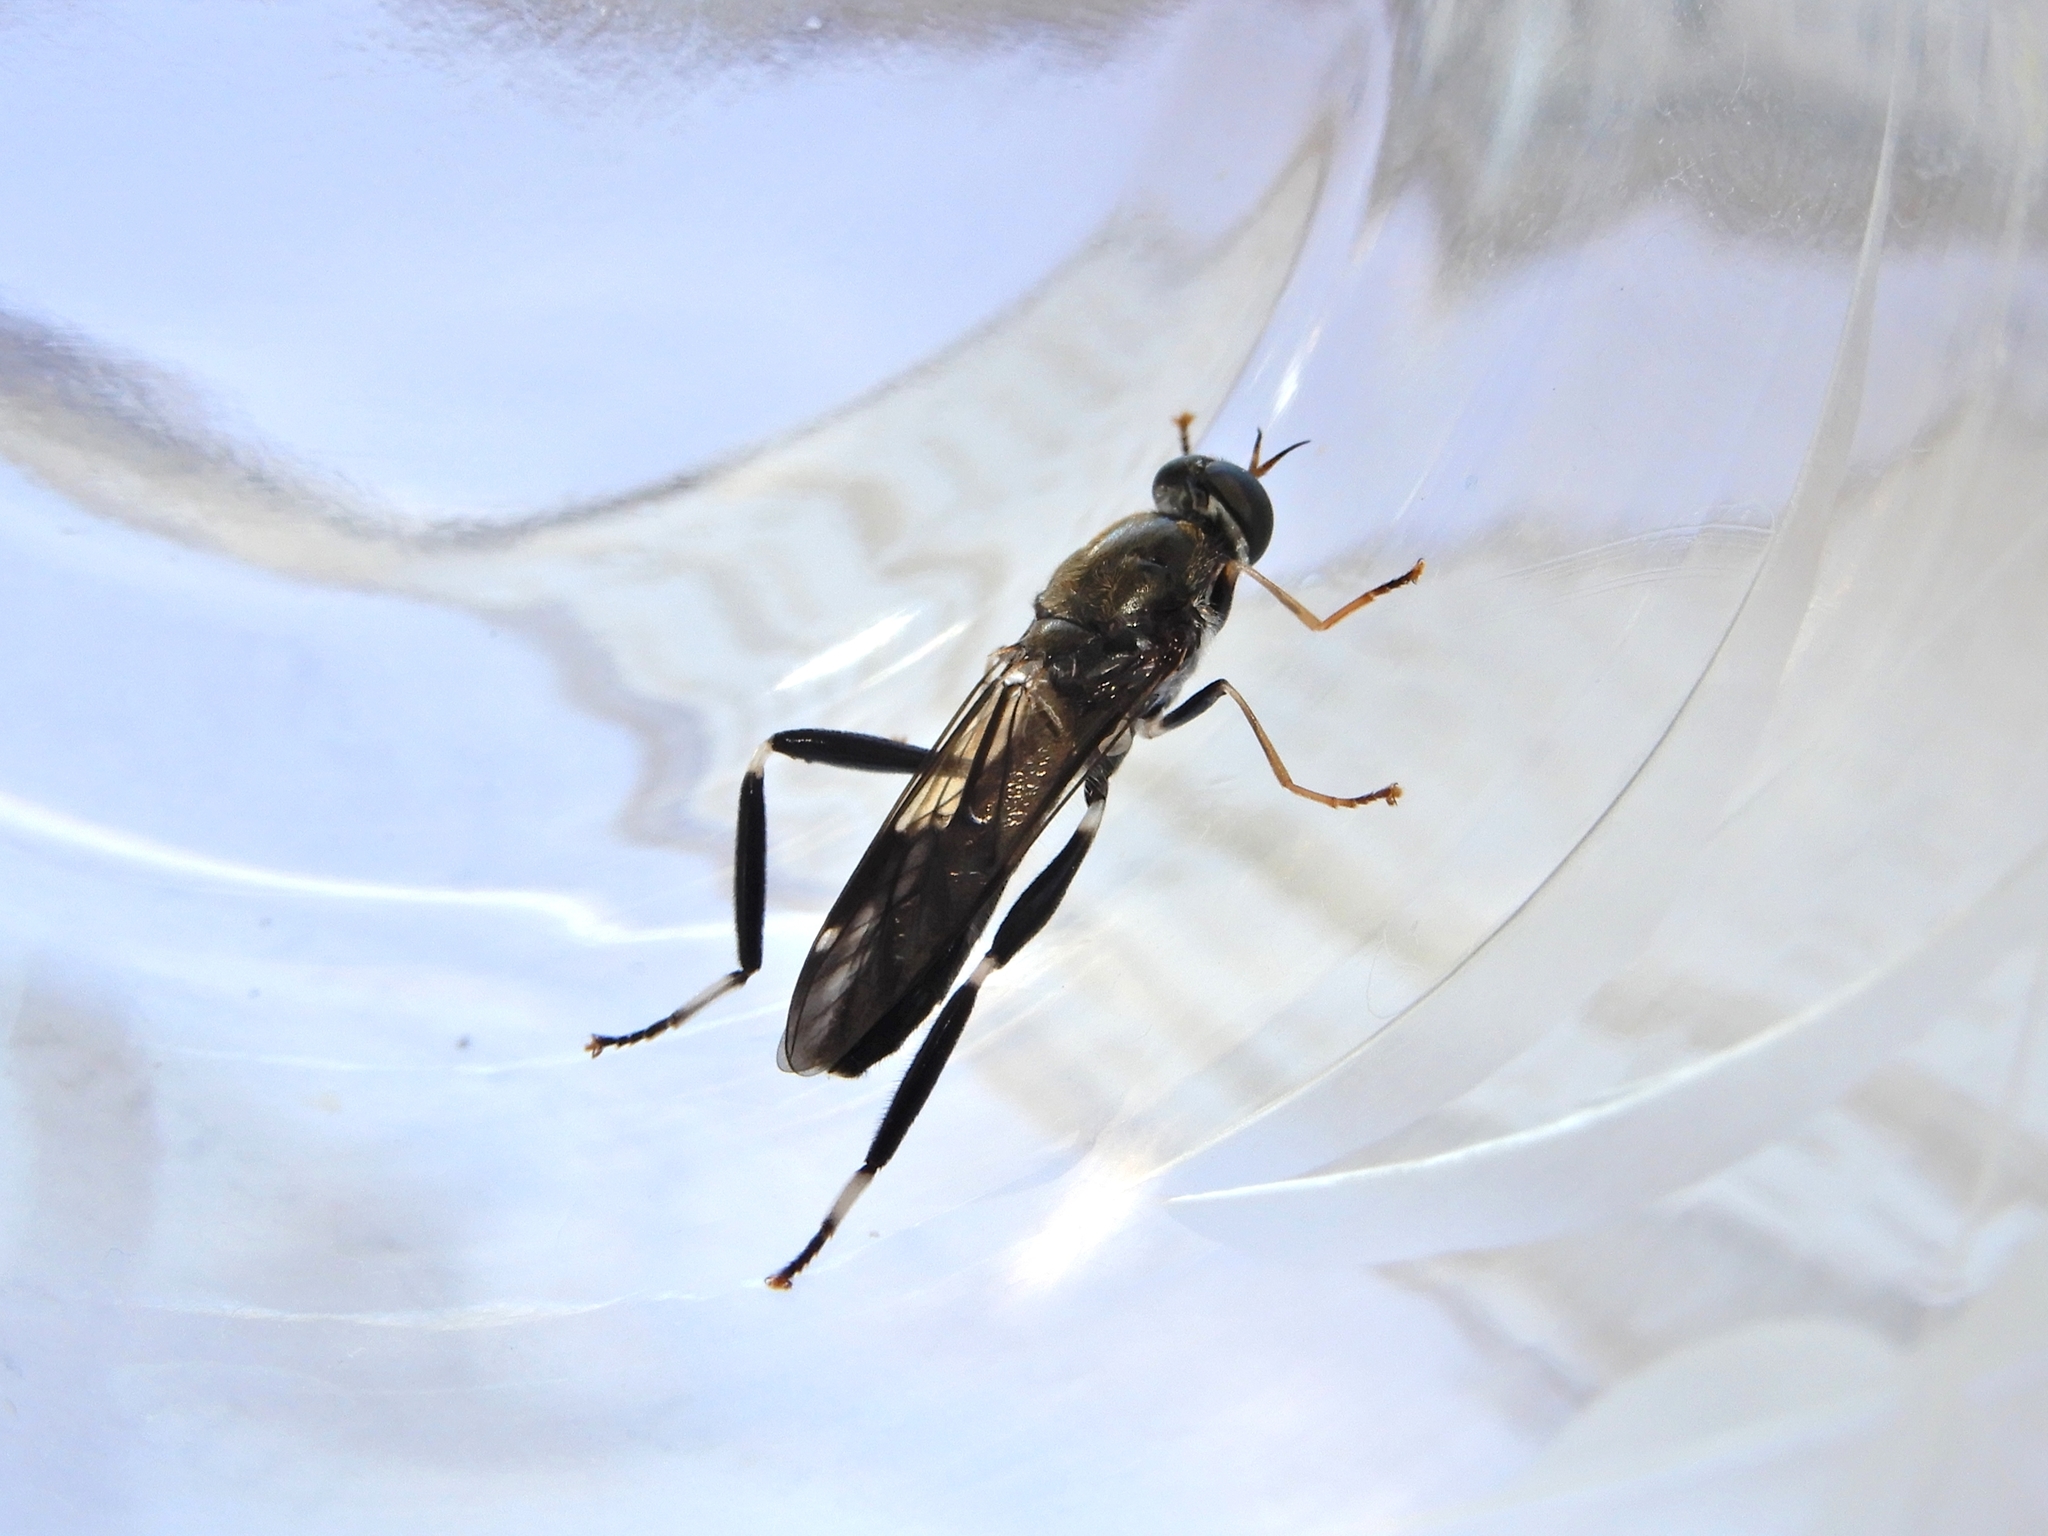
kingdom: Animalia
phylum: Arthropoda
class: Insecta
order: Diptera
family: Stratiomyidae
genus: Exaireta
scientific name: Exaireta spinigera
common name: Blue soldier fly
